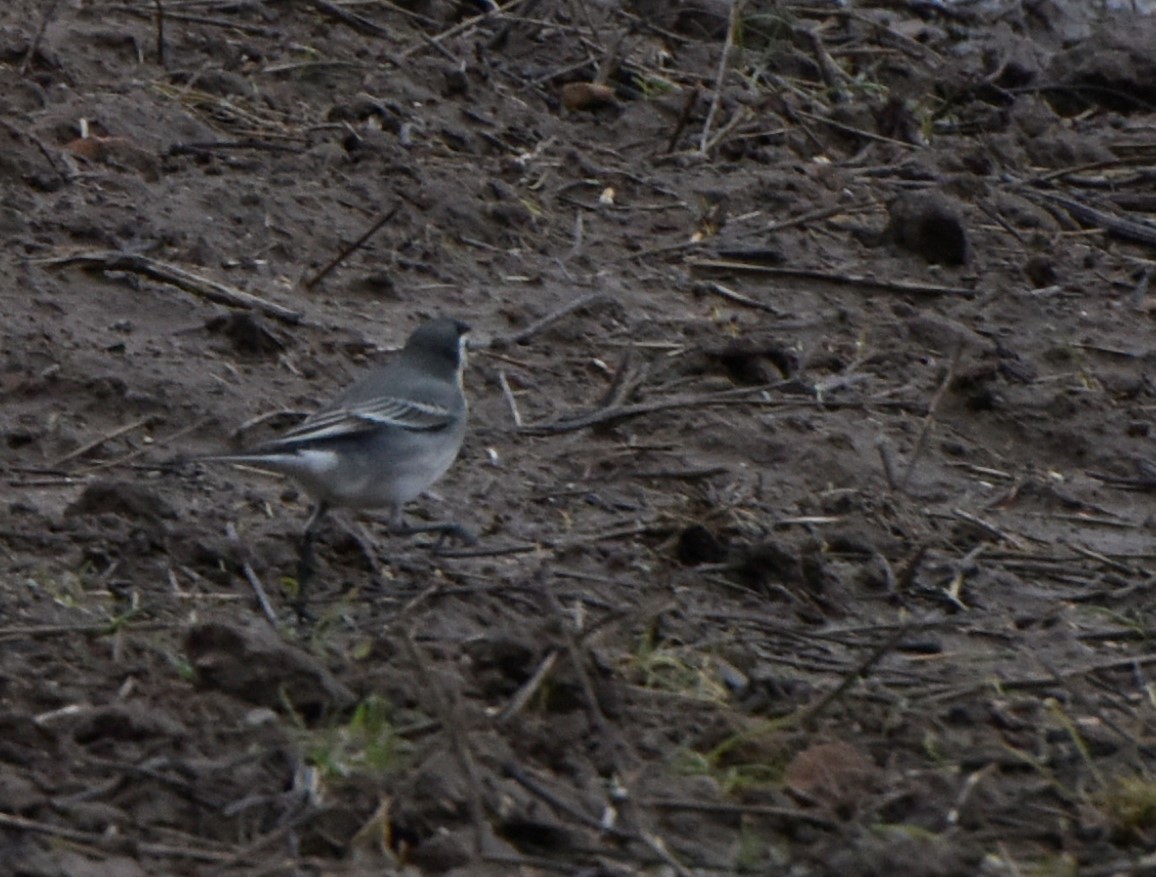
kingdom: Animalia
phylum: Chordata
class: Aves
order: Passeriformes
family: Motacillidae
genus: Motacilla
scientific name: Motacilla alba
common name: White wagtail
